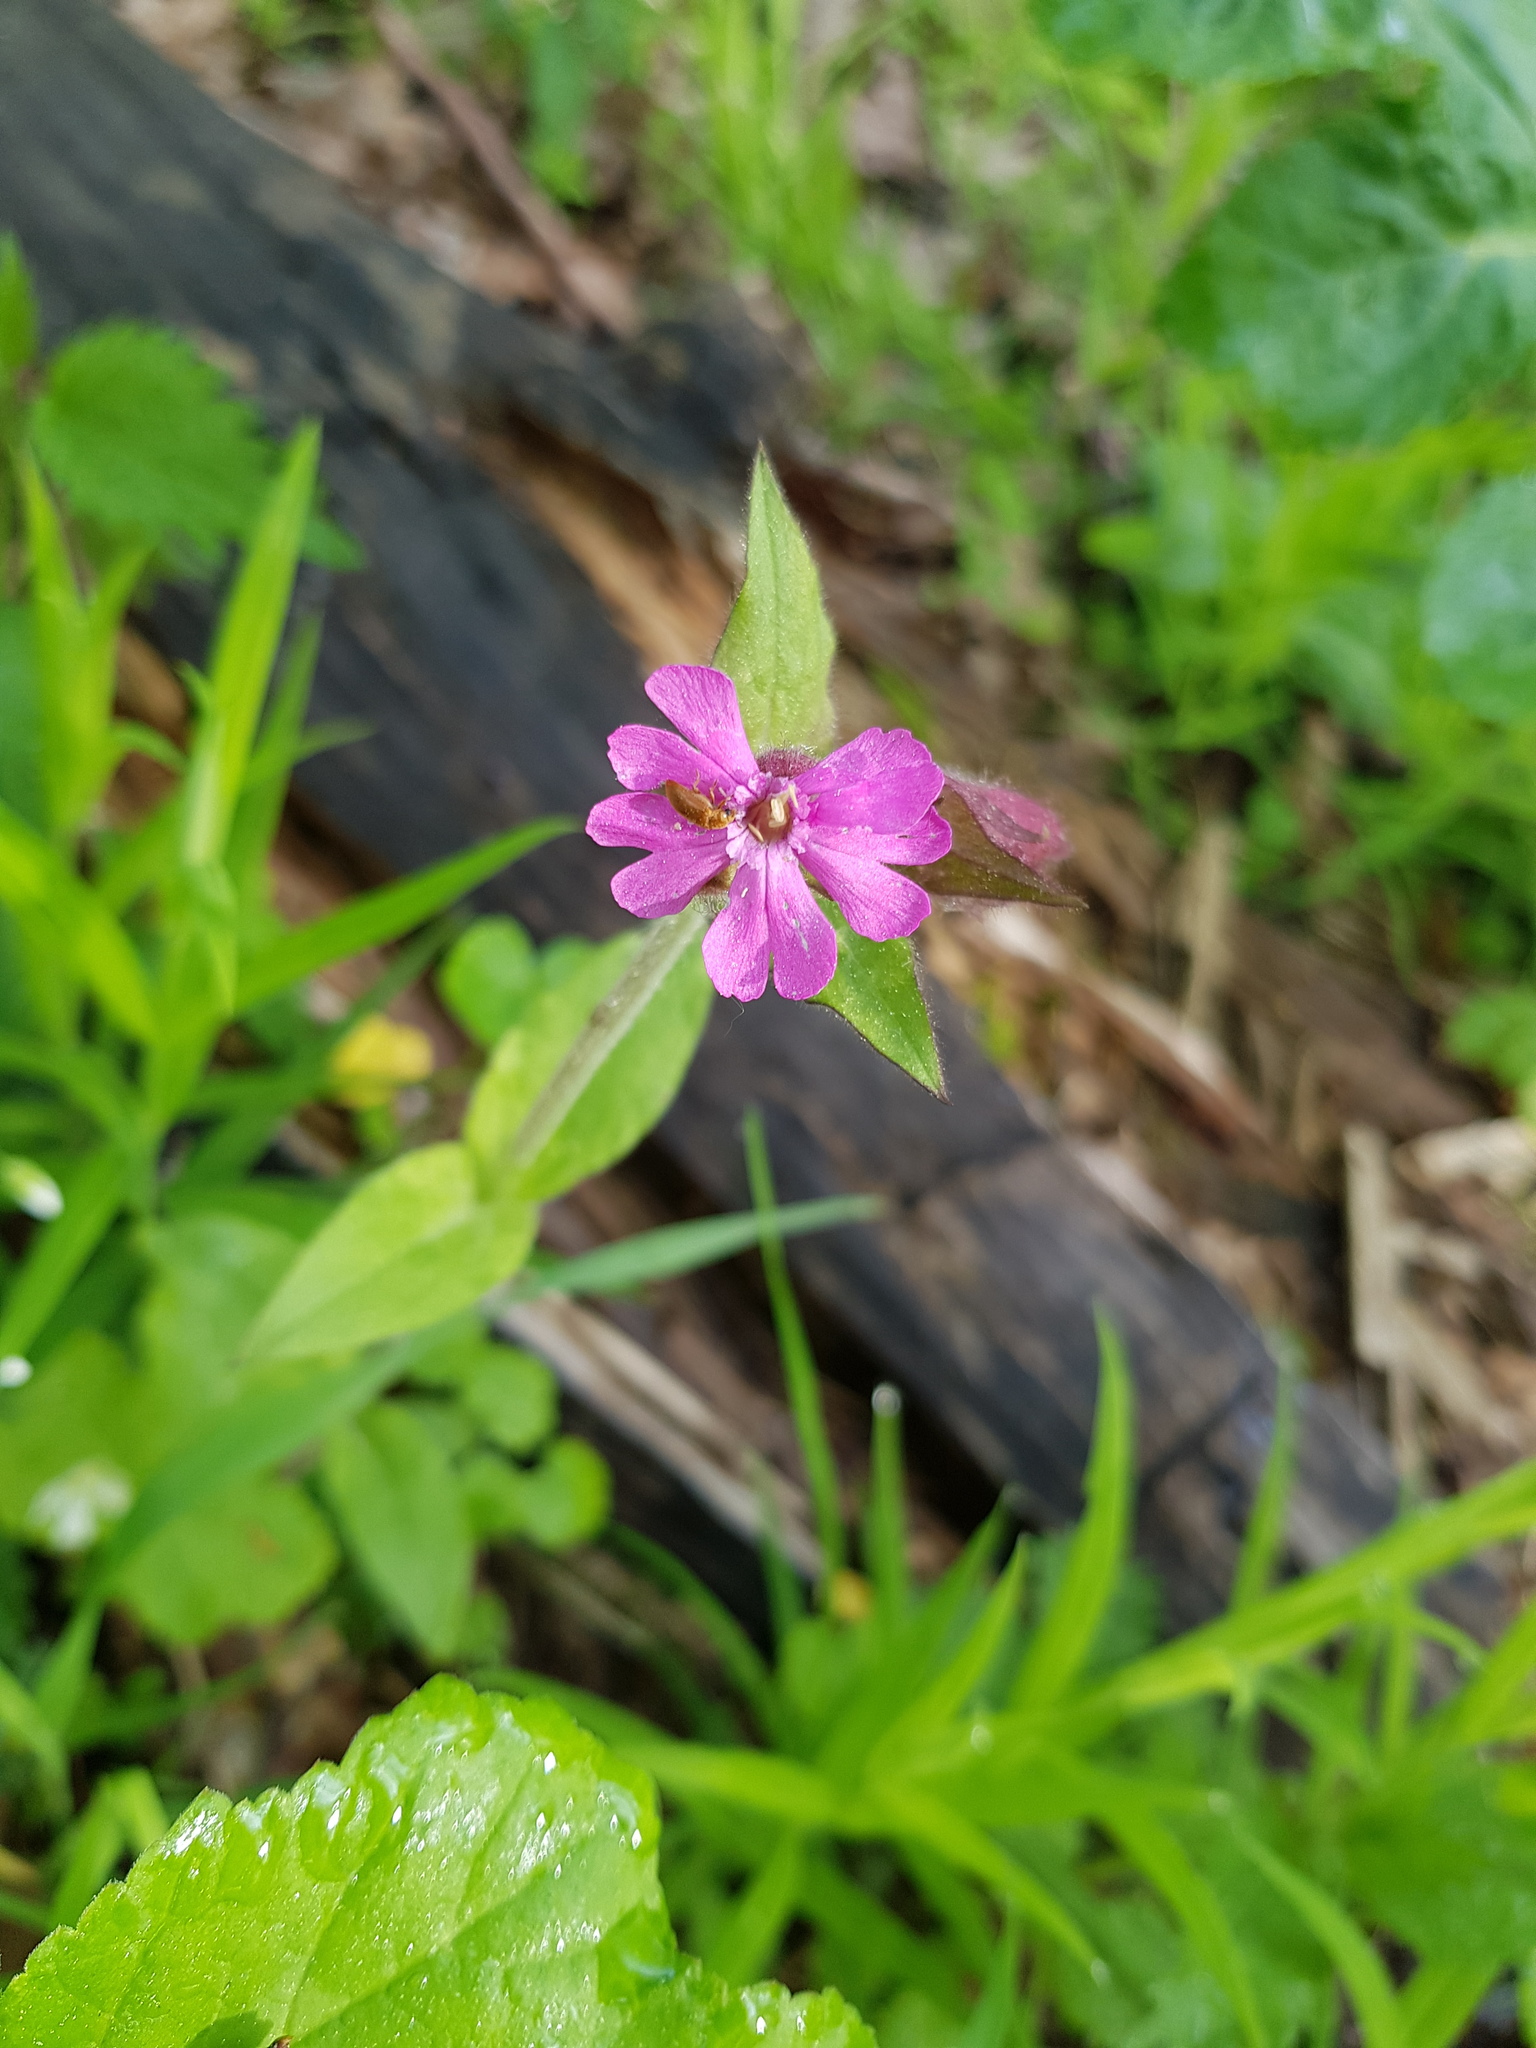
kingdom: Plantae
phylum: Tracheophyta
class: Magnoliopsida
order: Caryophyllales
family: Caryophyllaceae
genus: Silene
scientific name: Silene dioica
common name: Red campion
